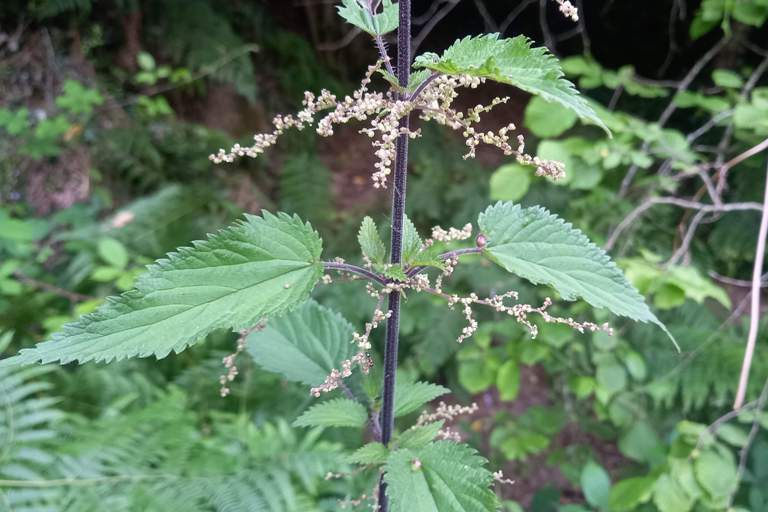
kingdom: Plantae
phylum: Tracheophyta
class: Magnoliopsida
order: Rosales
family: Urticaceae
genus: Urtica
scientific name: Urtica dioica
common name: Common nettle
